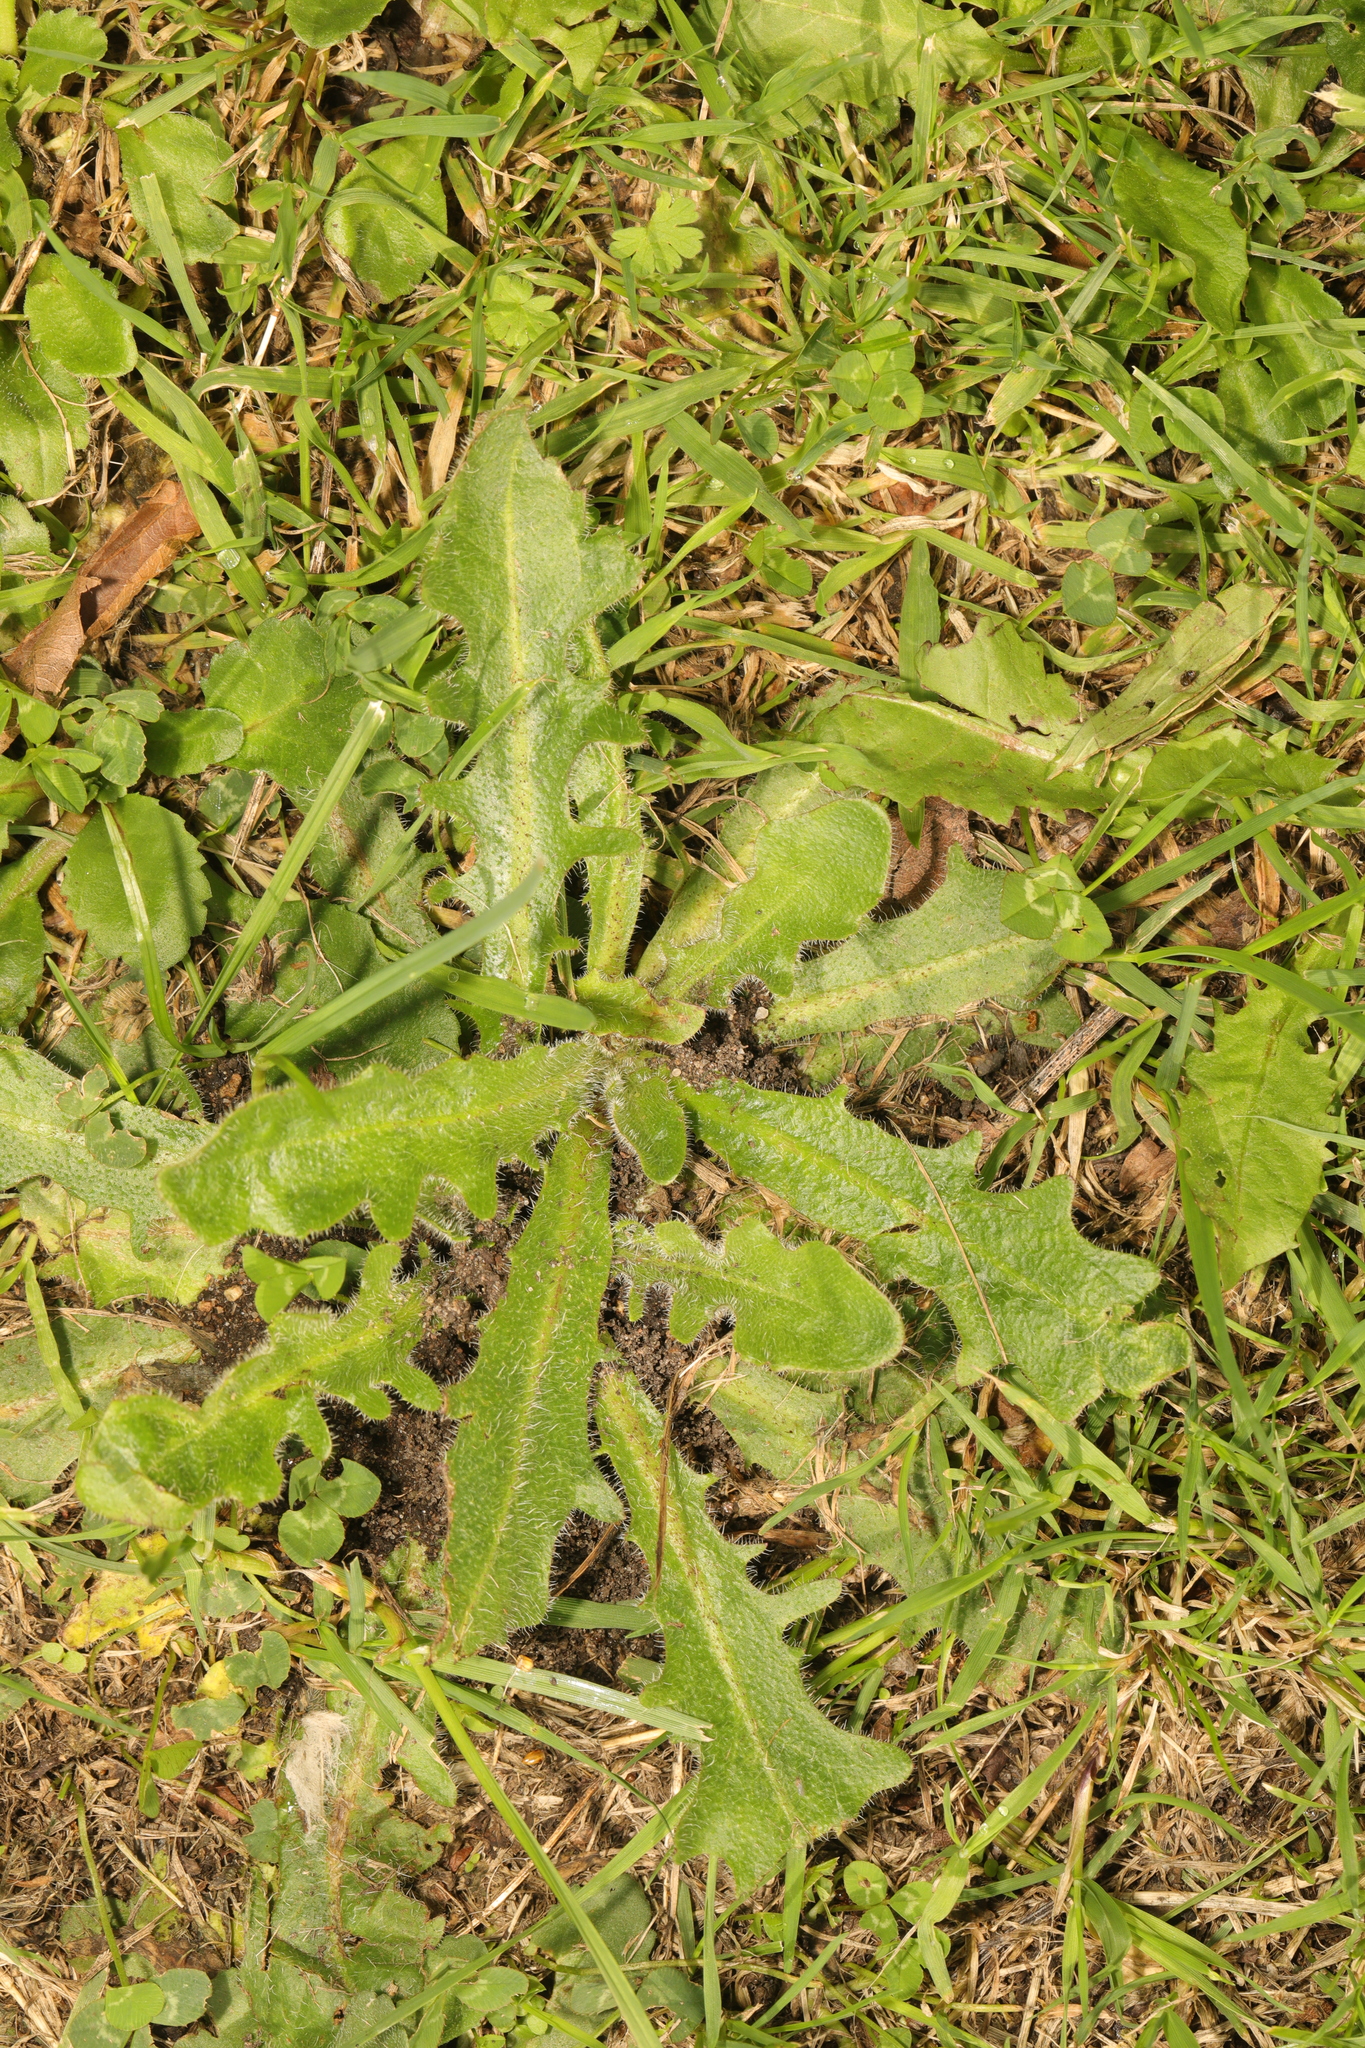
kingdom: Plantae
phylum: Tracheophyta
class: Magnoliopsida
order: Asterales
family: Asteraceae
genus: Hypochaeris
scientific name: Hypochaeris radicata
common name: Flatweed
